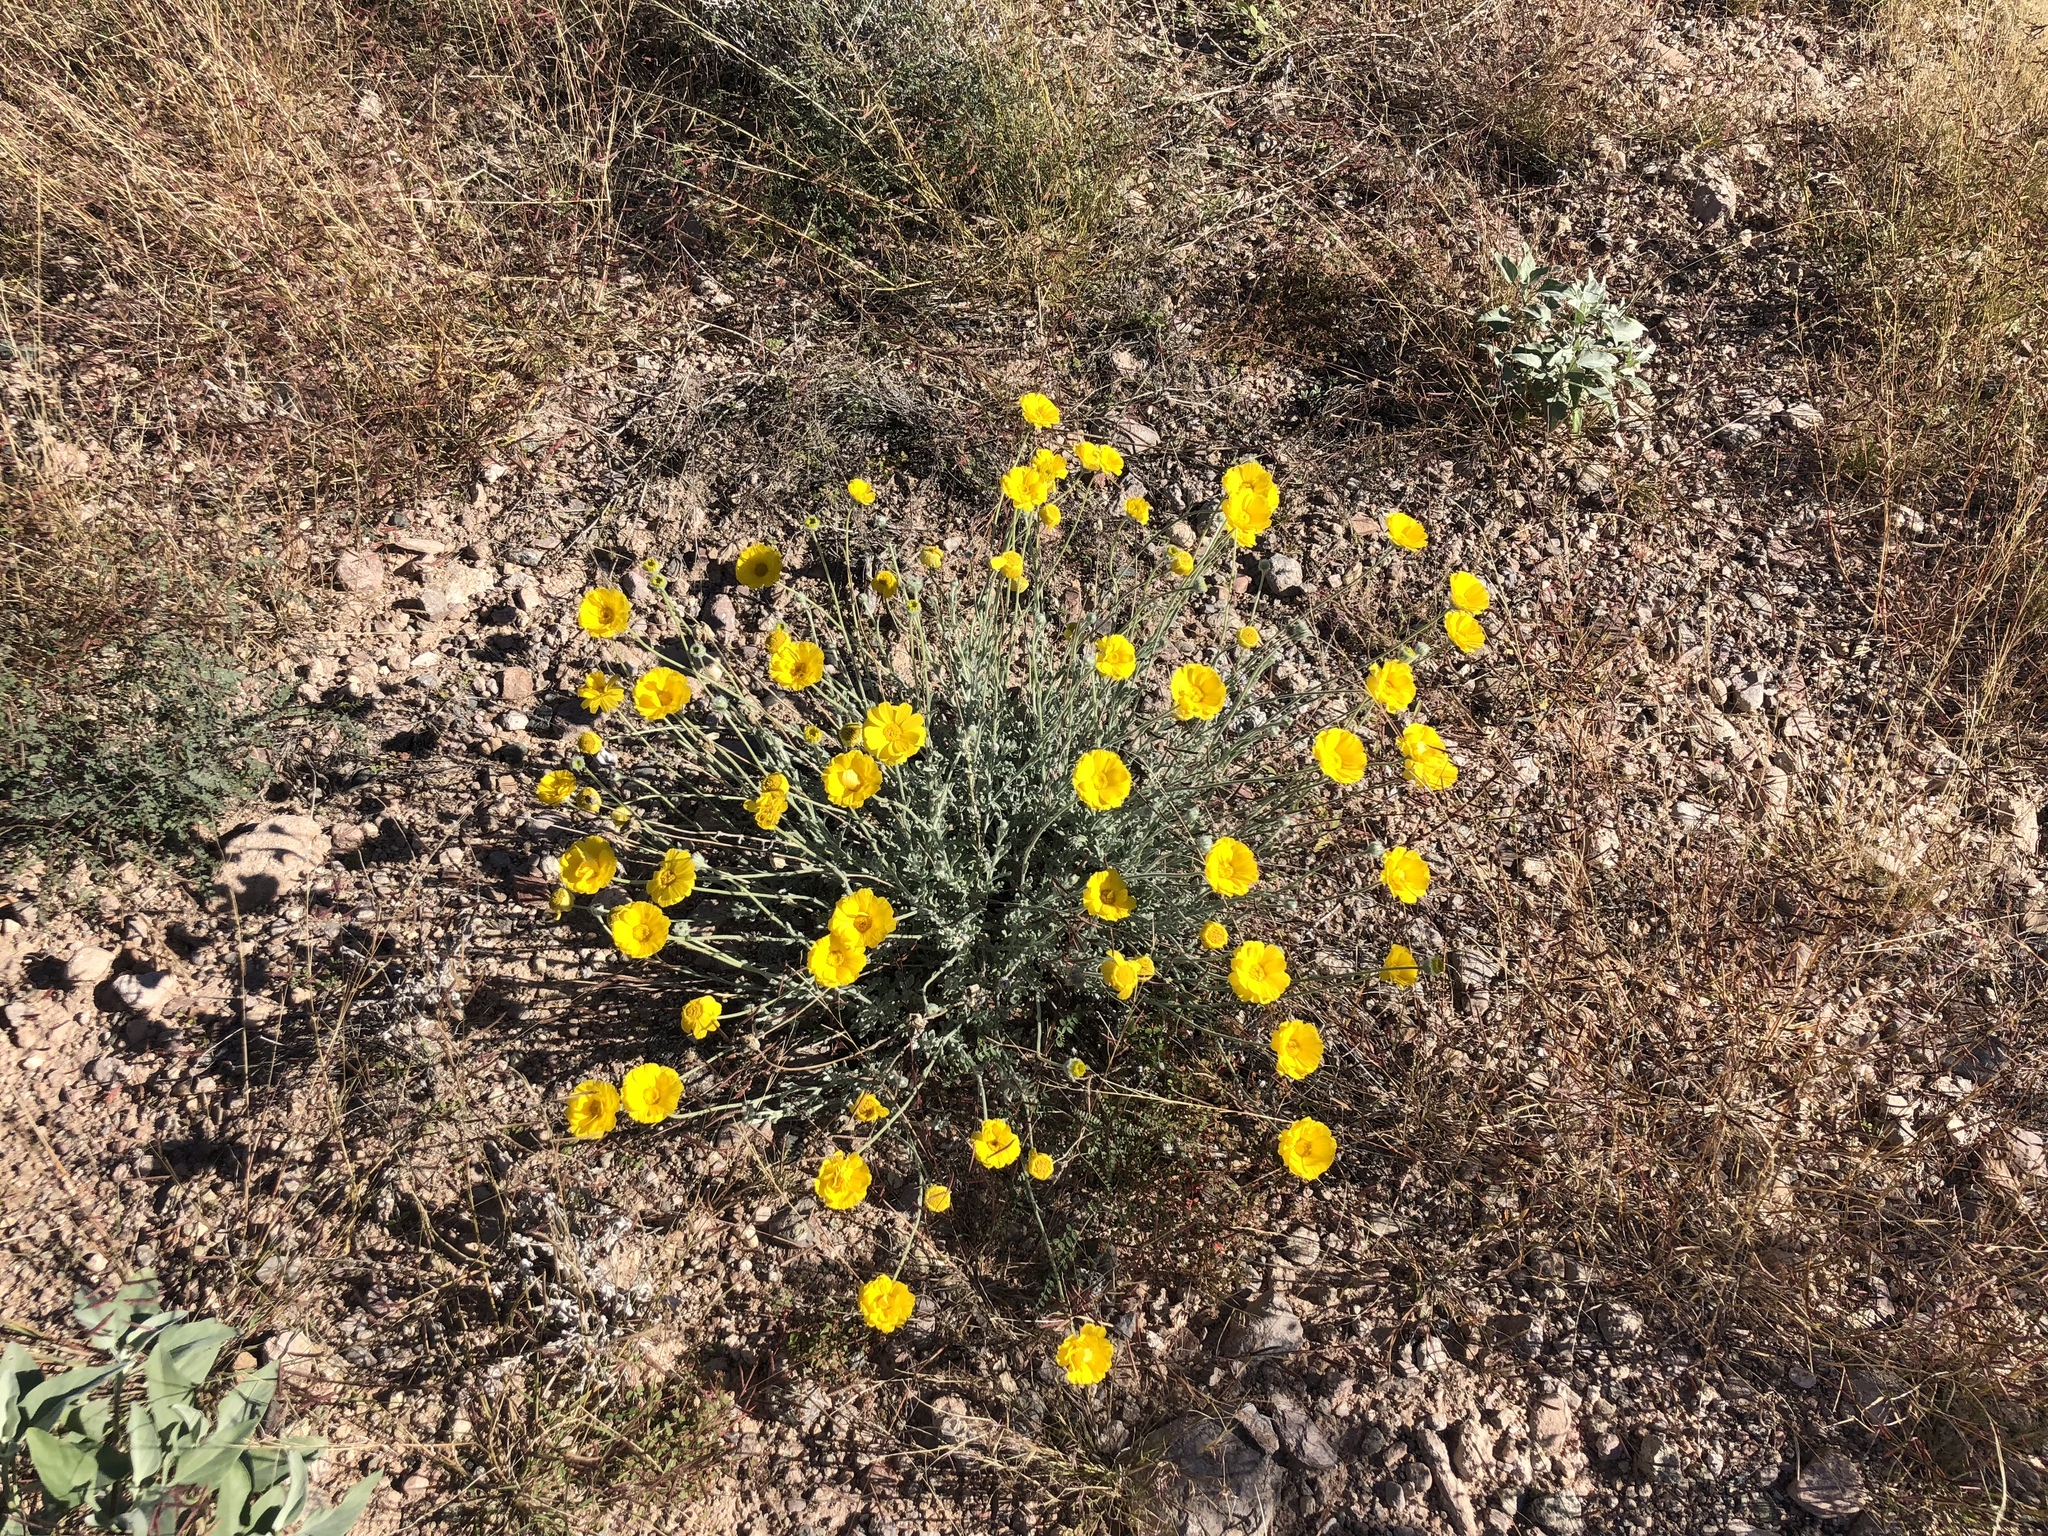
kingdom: Plantae
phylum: Tracheophyta
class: Magnoliopsida
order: Asterales
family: Asteraceae
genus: Baileya
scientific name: Baileya multiradiata
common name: Desert-marigold
